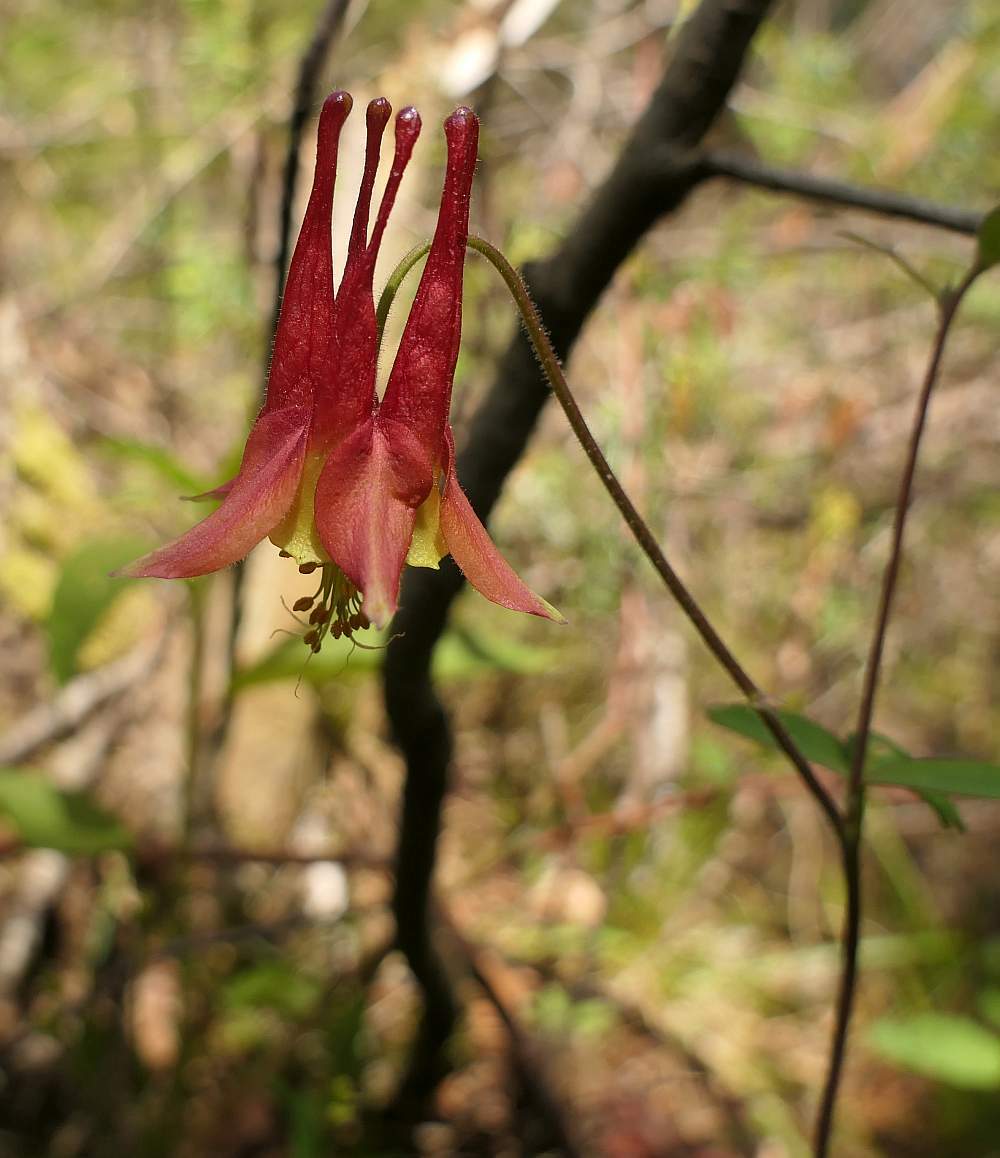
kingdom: Plantae
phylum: Tracheophyta
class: Magnoliopsida
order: Ranunculales
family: Ranunculaceae
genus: Aquilegia
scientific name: Aquilegia canadensis
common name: American columbine
